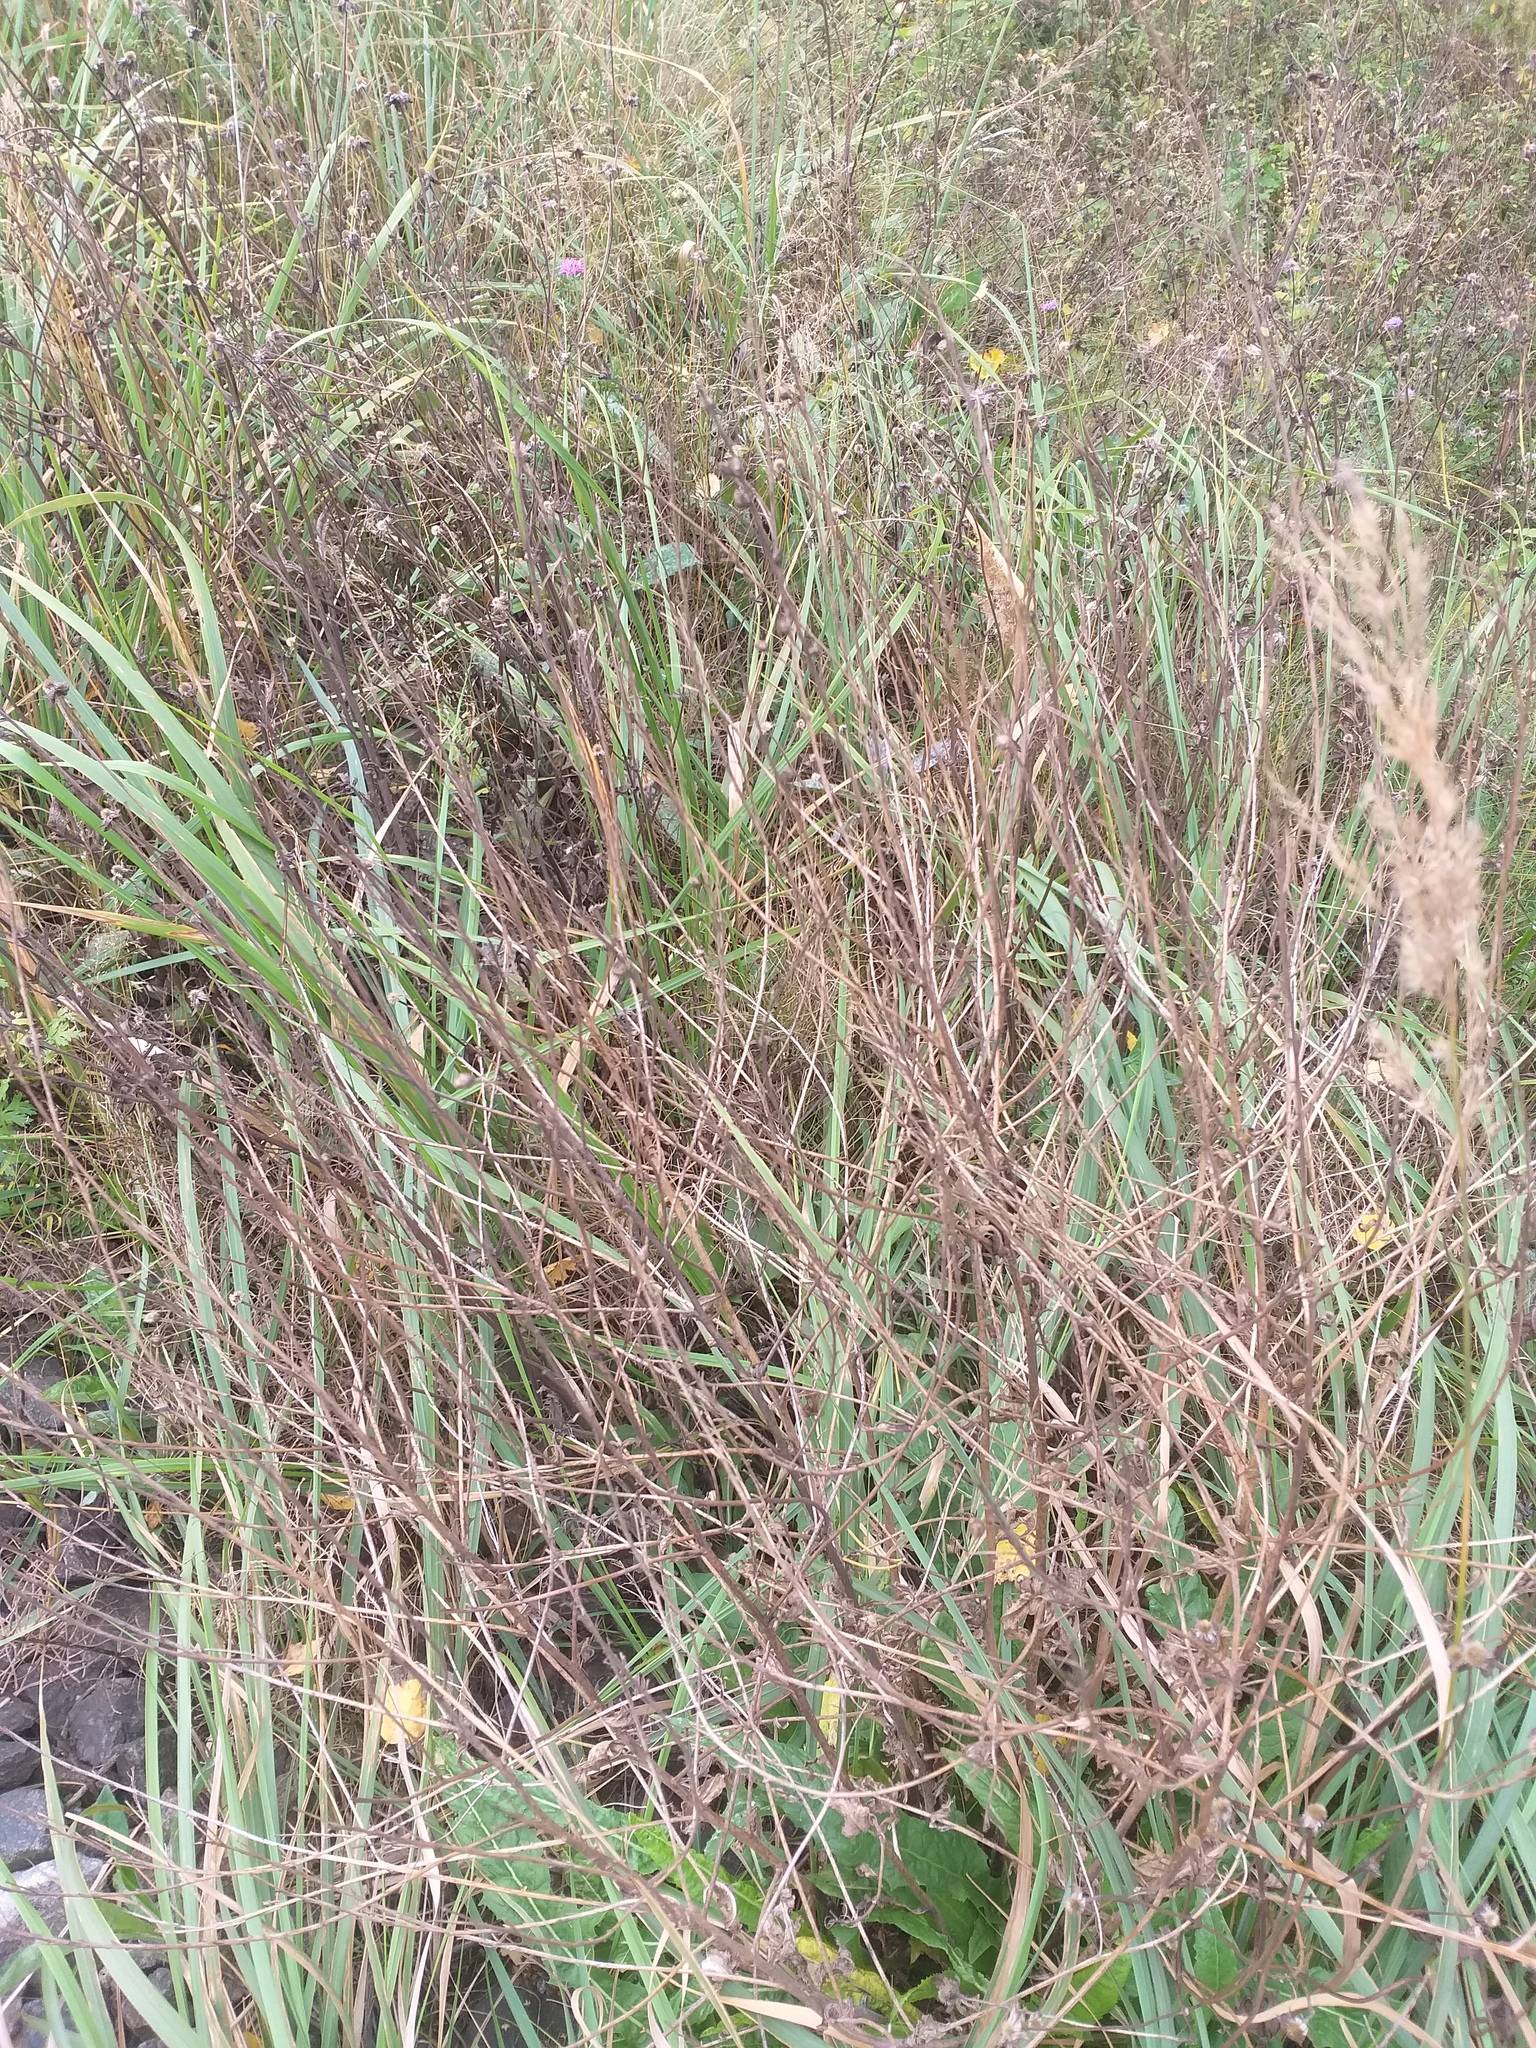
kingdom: Plantae
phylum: Tracheophyta
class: Magnoliopsida
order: Brassicales
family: Brassicaceae
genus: Bunias
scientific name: Bunias orientalis
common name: Warty-cabbage
